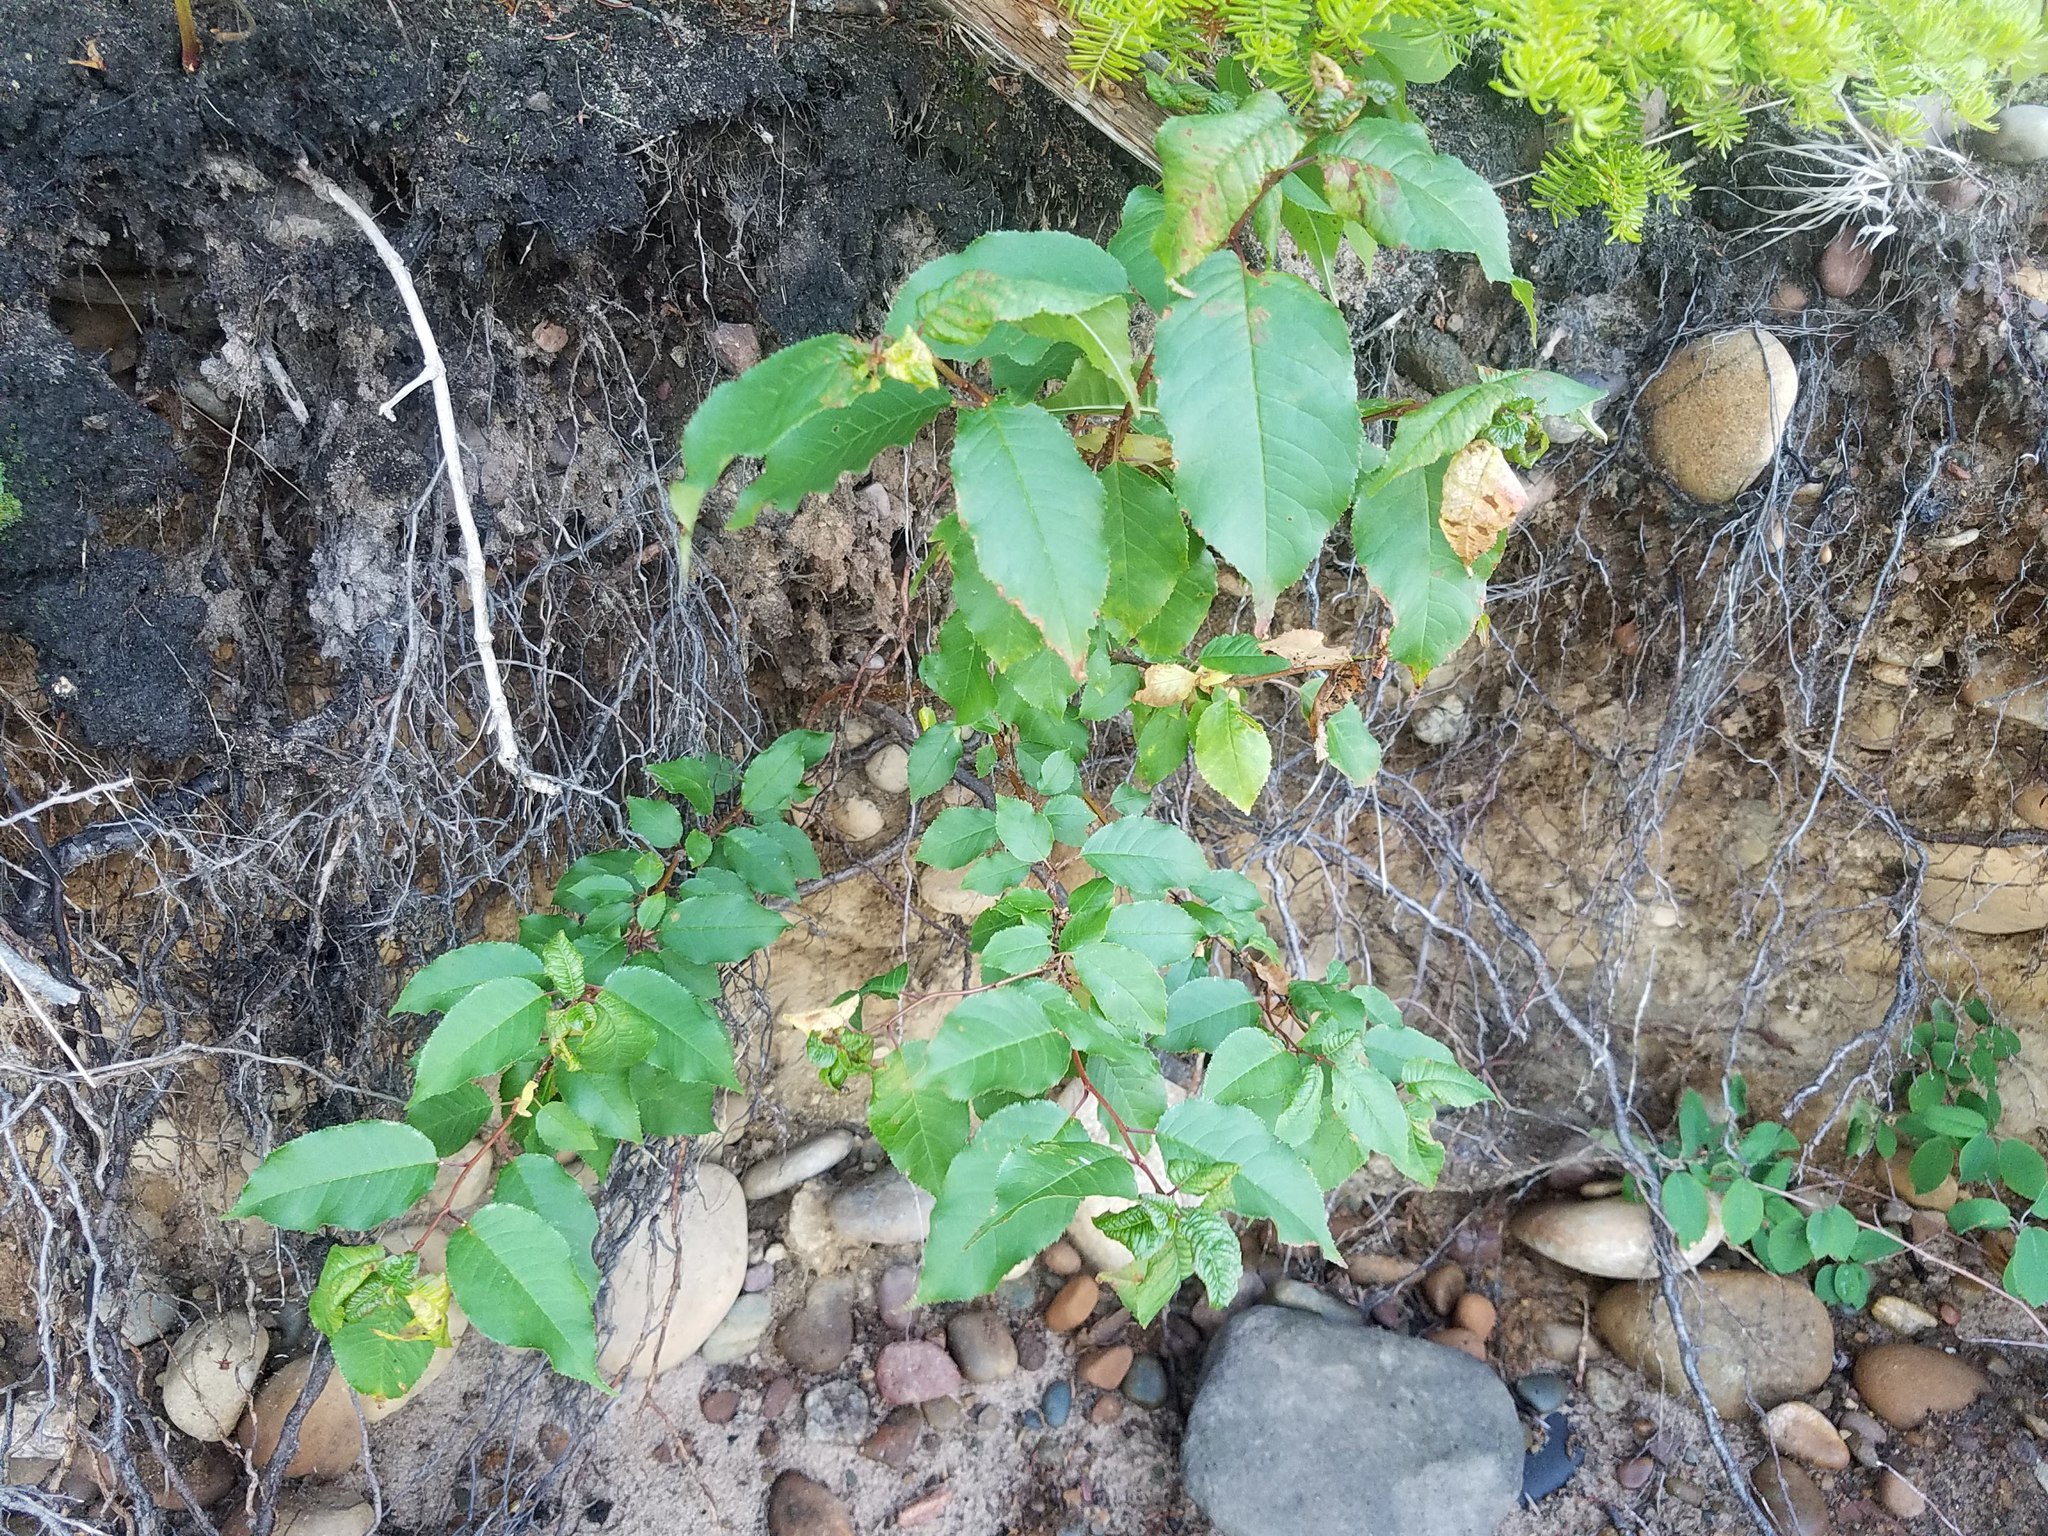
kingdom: Plantae
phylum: Tracheophyta
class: Magnoliopsida
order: Rosales
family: Rosaceae
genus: Prunus
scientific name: Prunus pensylvanica
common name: Pin cherry
